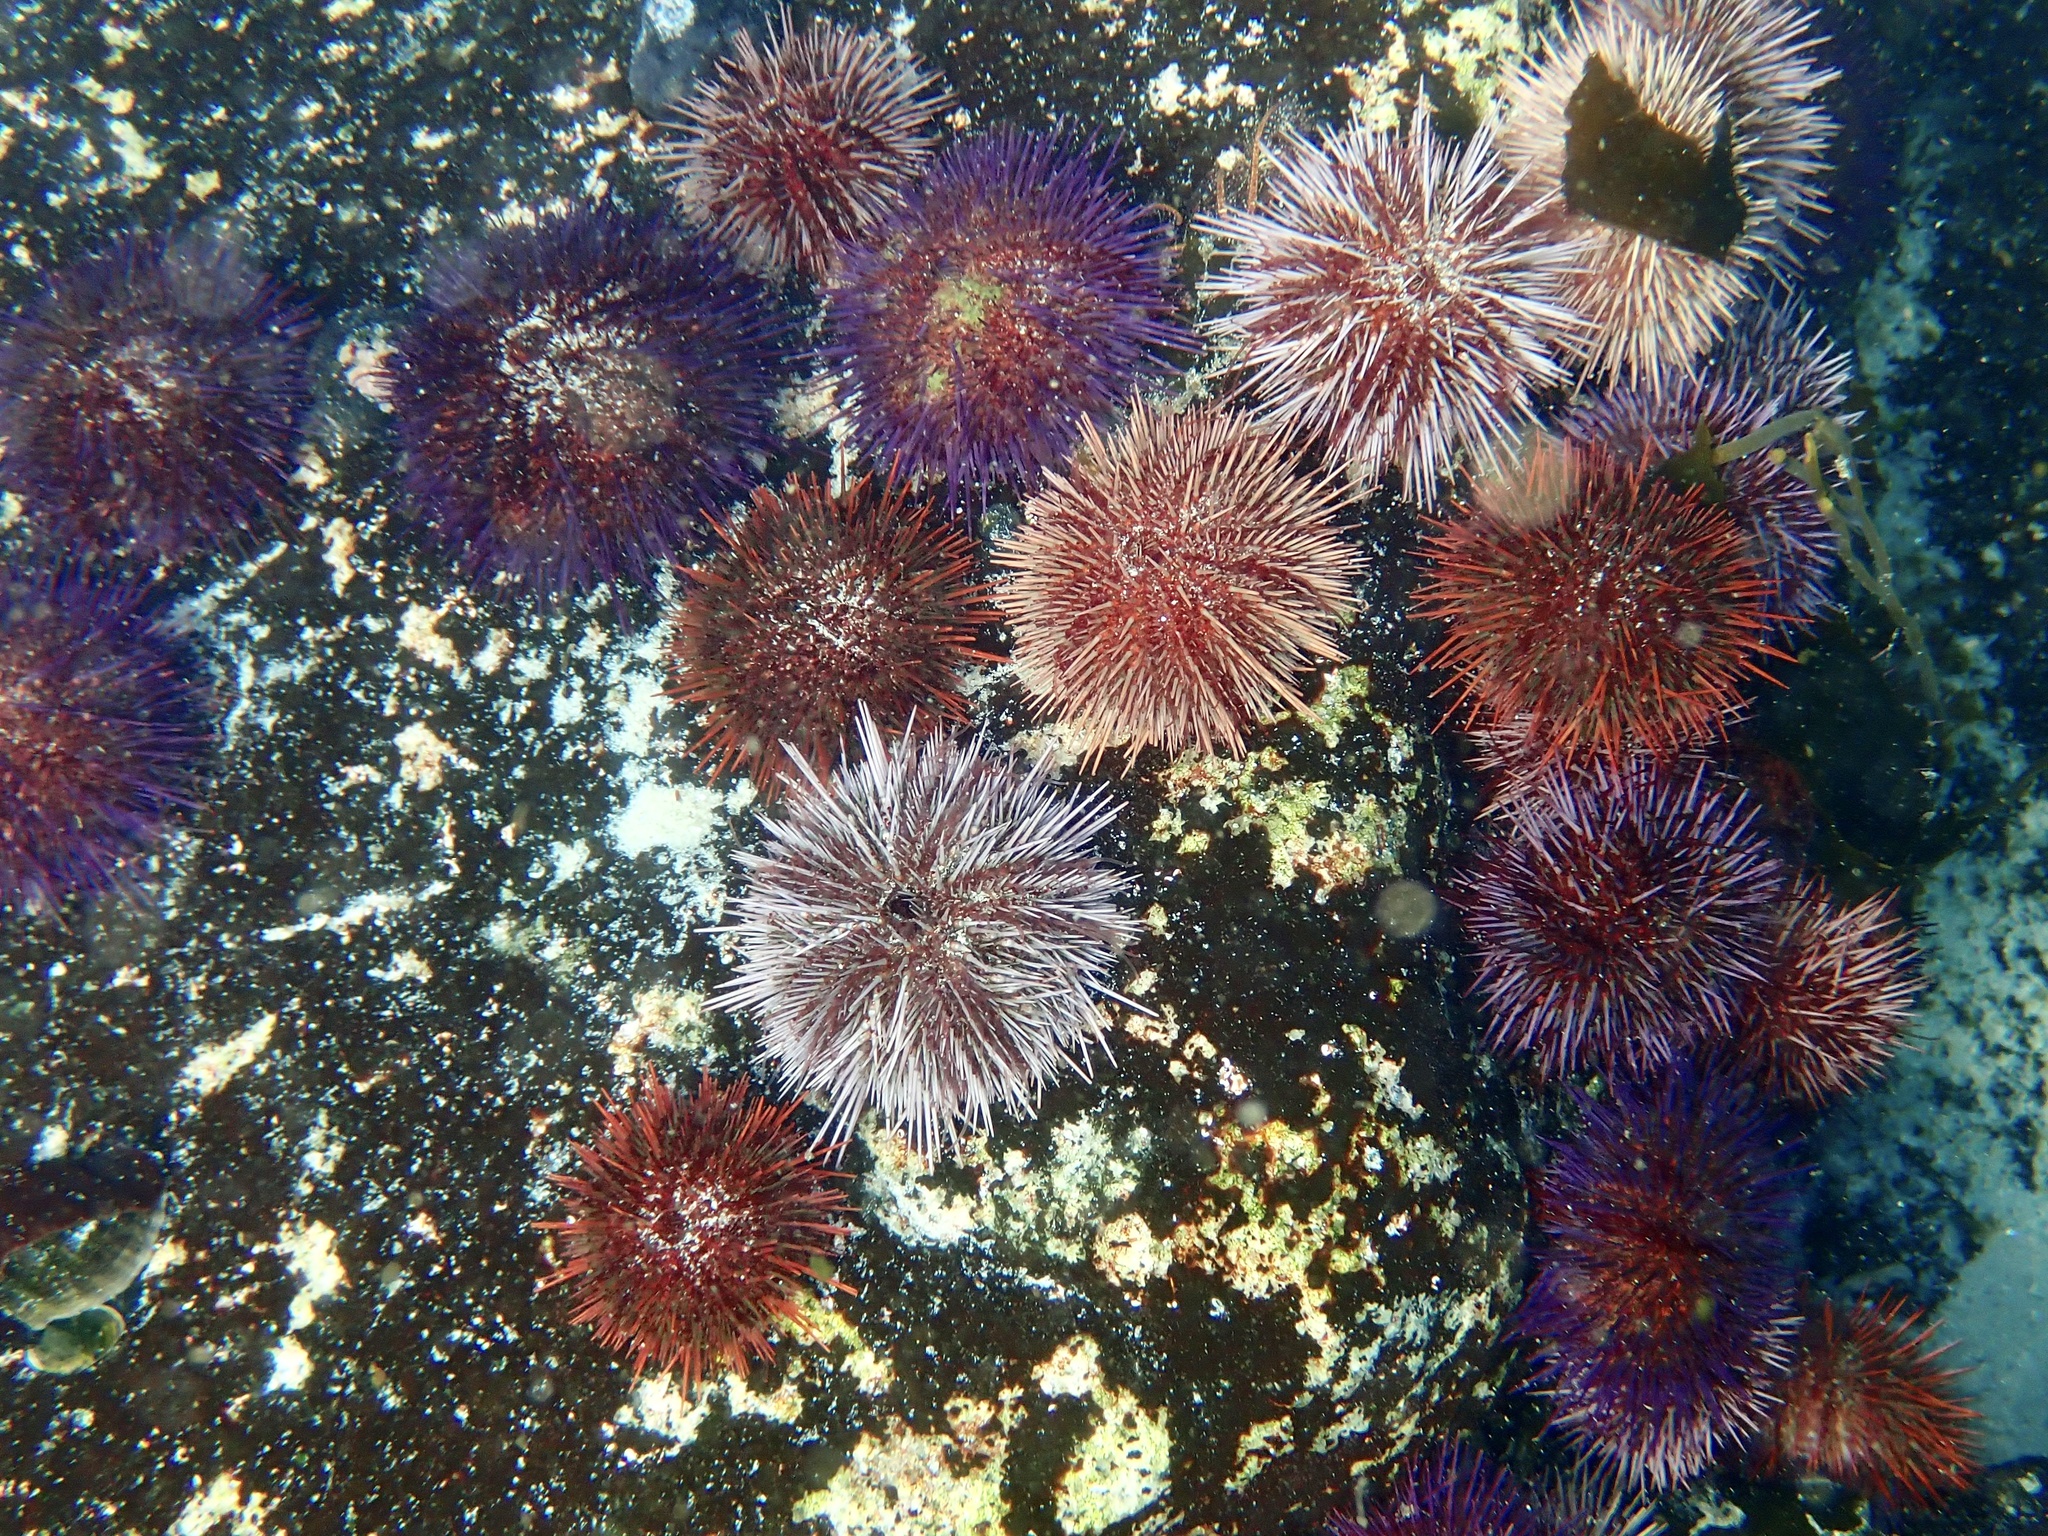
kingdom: Animalia
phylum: Echinodermata
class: Echinoidea
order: Camarodonta
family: Parechinidae
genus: Parechinus
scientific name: Parechinus angulosus
